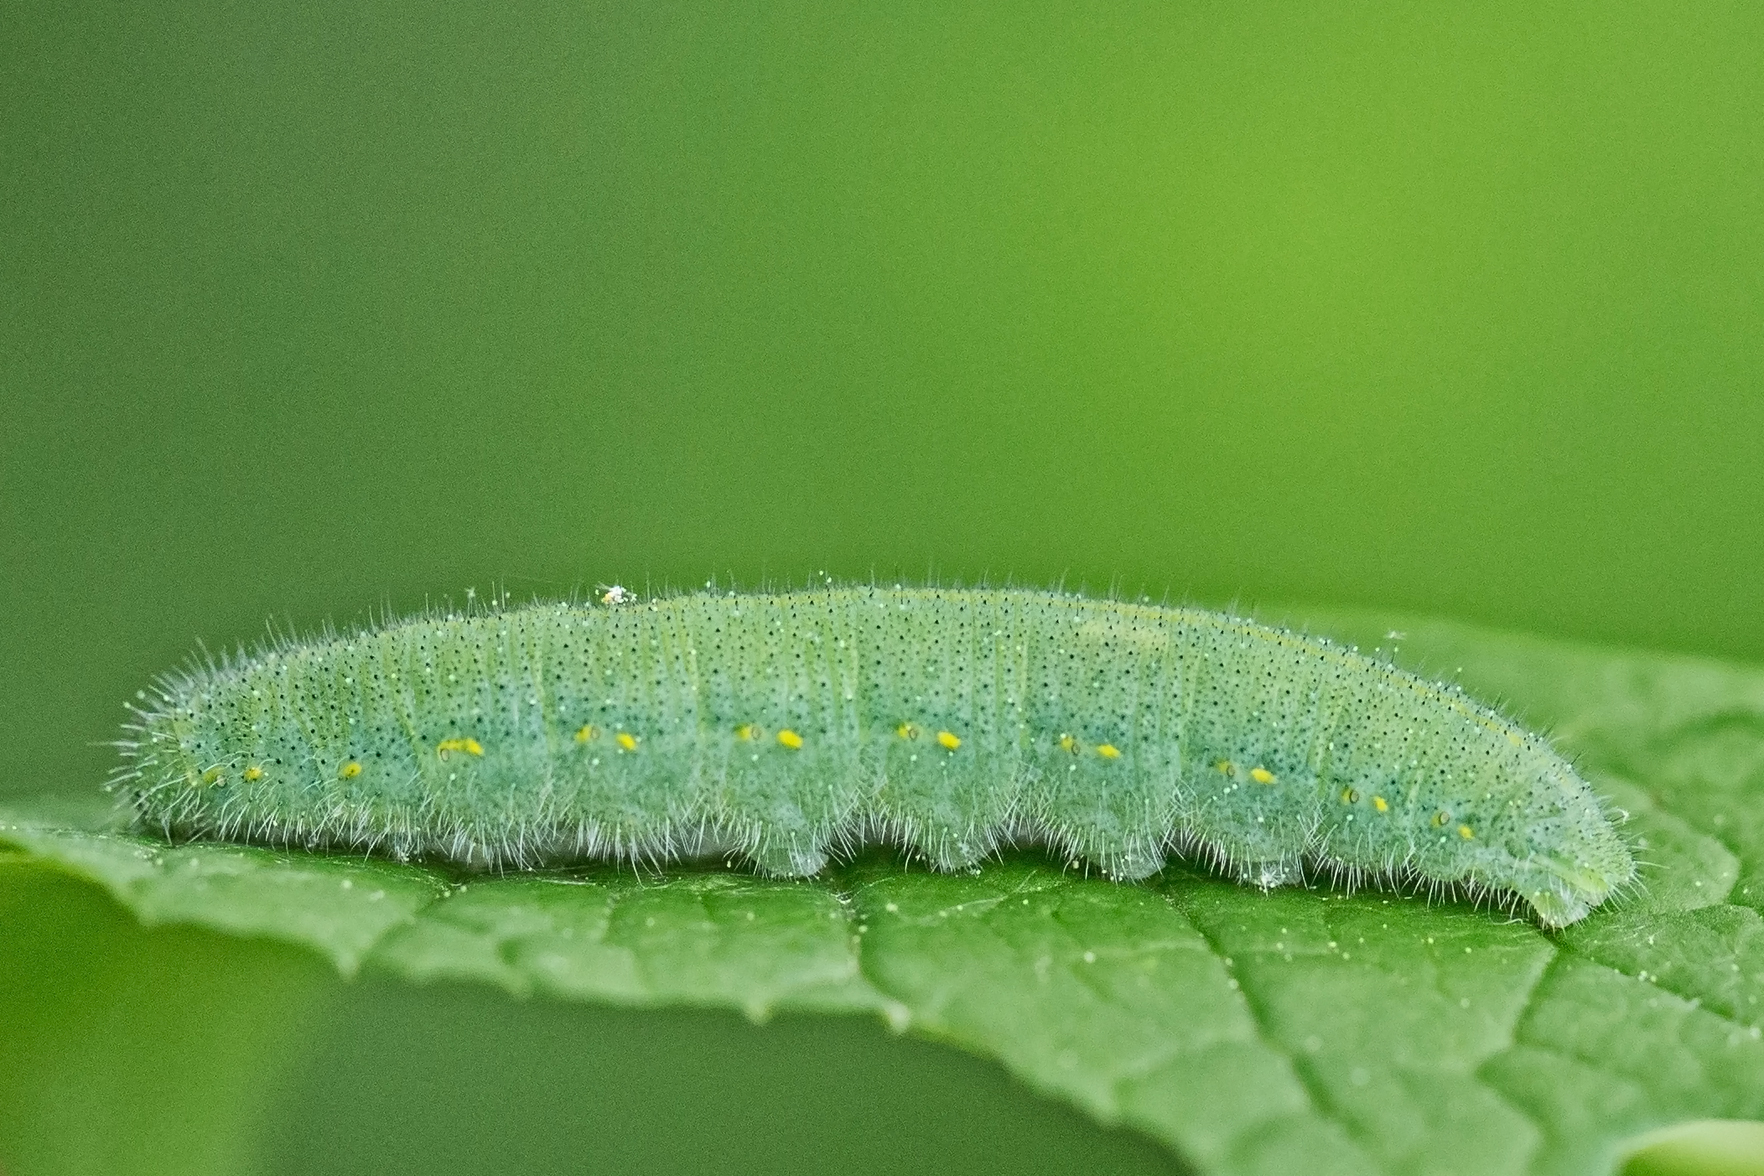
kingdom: Animalia
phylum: Arthropoda
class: Insecta
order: Lepidoptera
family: Pieridae
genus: Pieris
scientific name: Pieris rapae
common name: Small white
